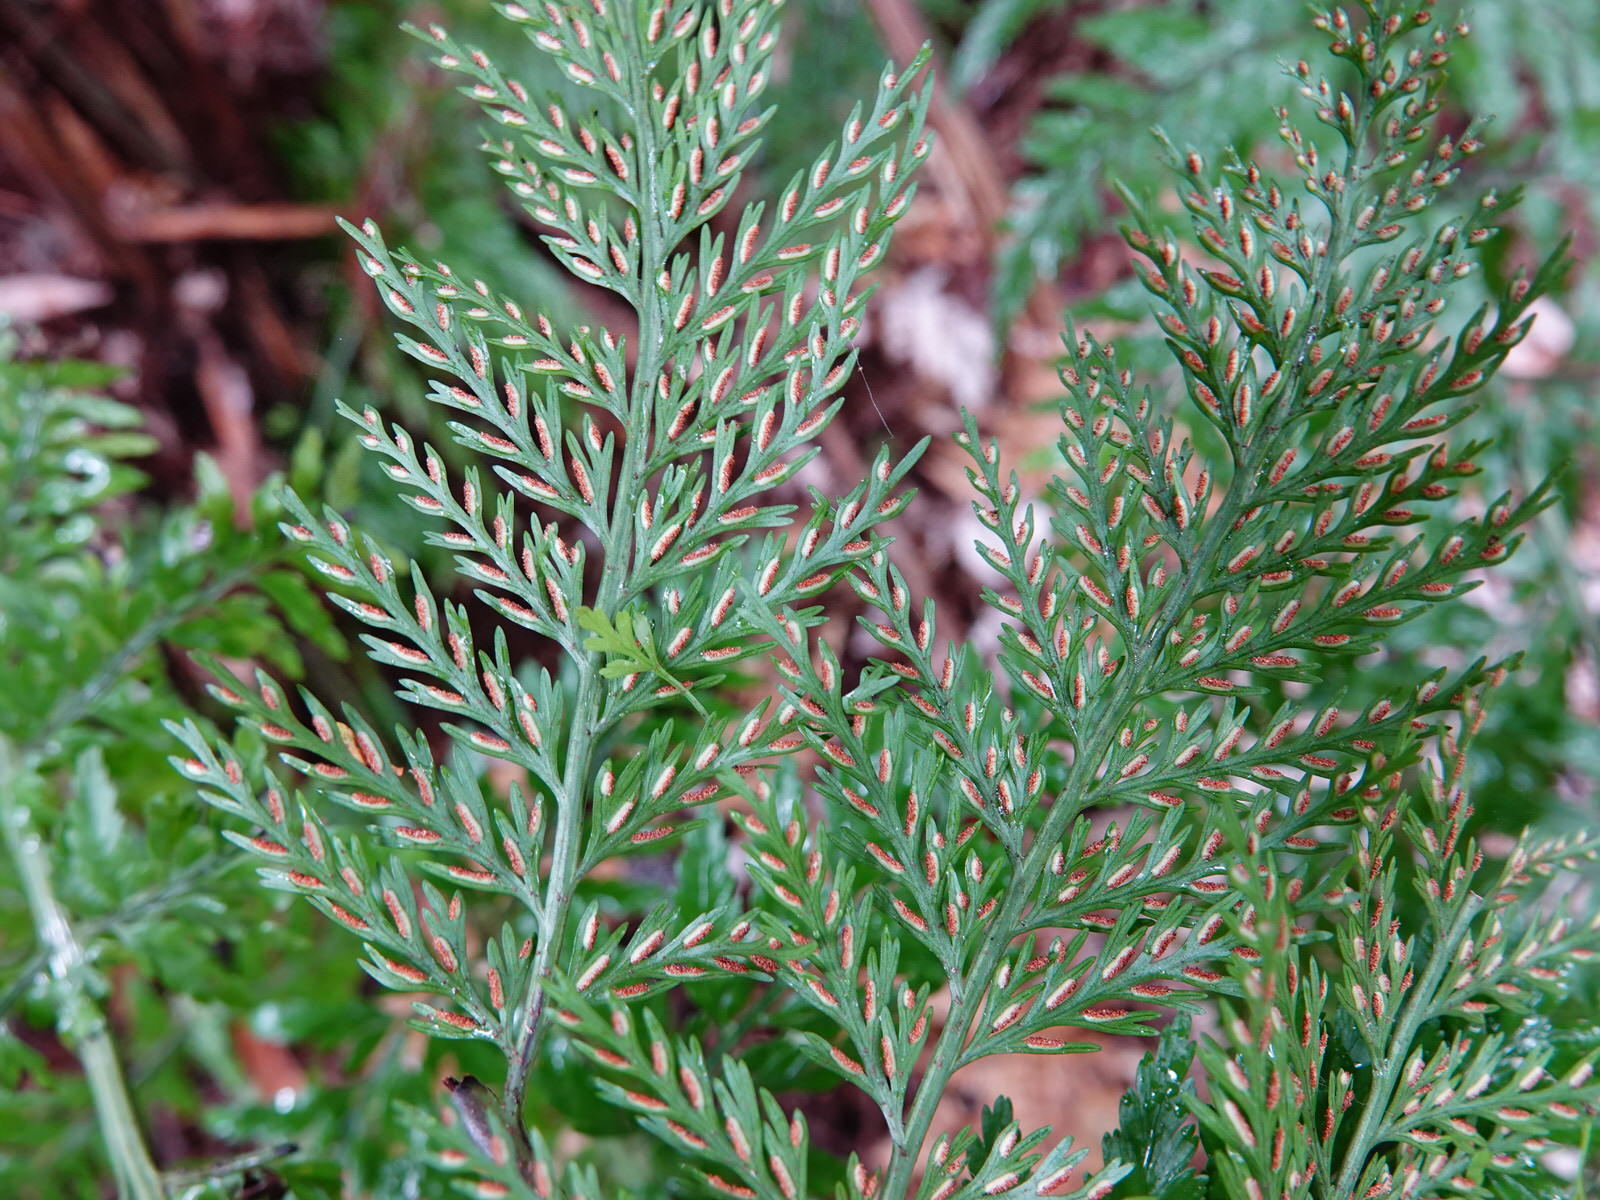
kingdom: Plantae
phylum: Tracheophyta
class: Polypodiopsida
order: Polypodiales
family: Aspleniaceae
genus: Asplenium
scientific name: Asplenium lucrosum
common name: False hen-and-chickens fern
